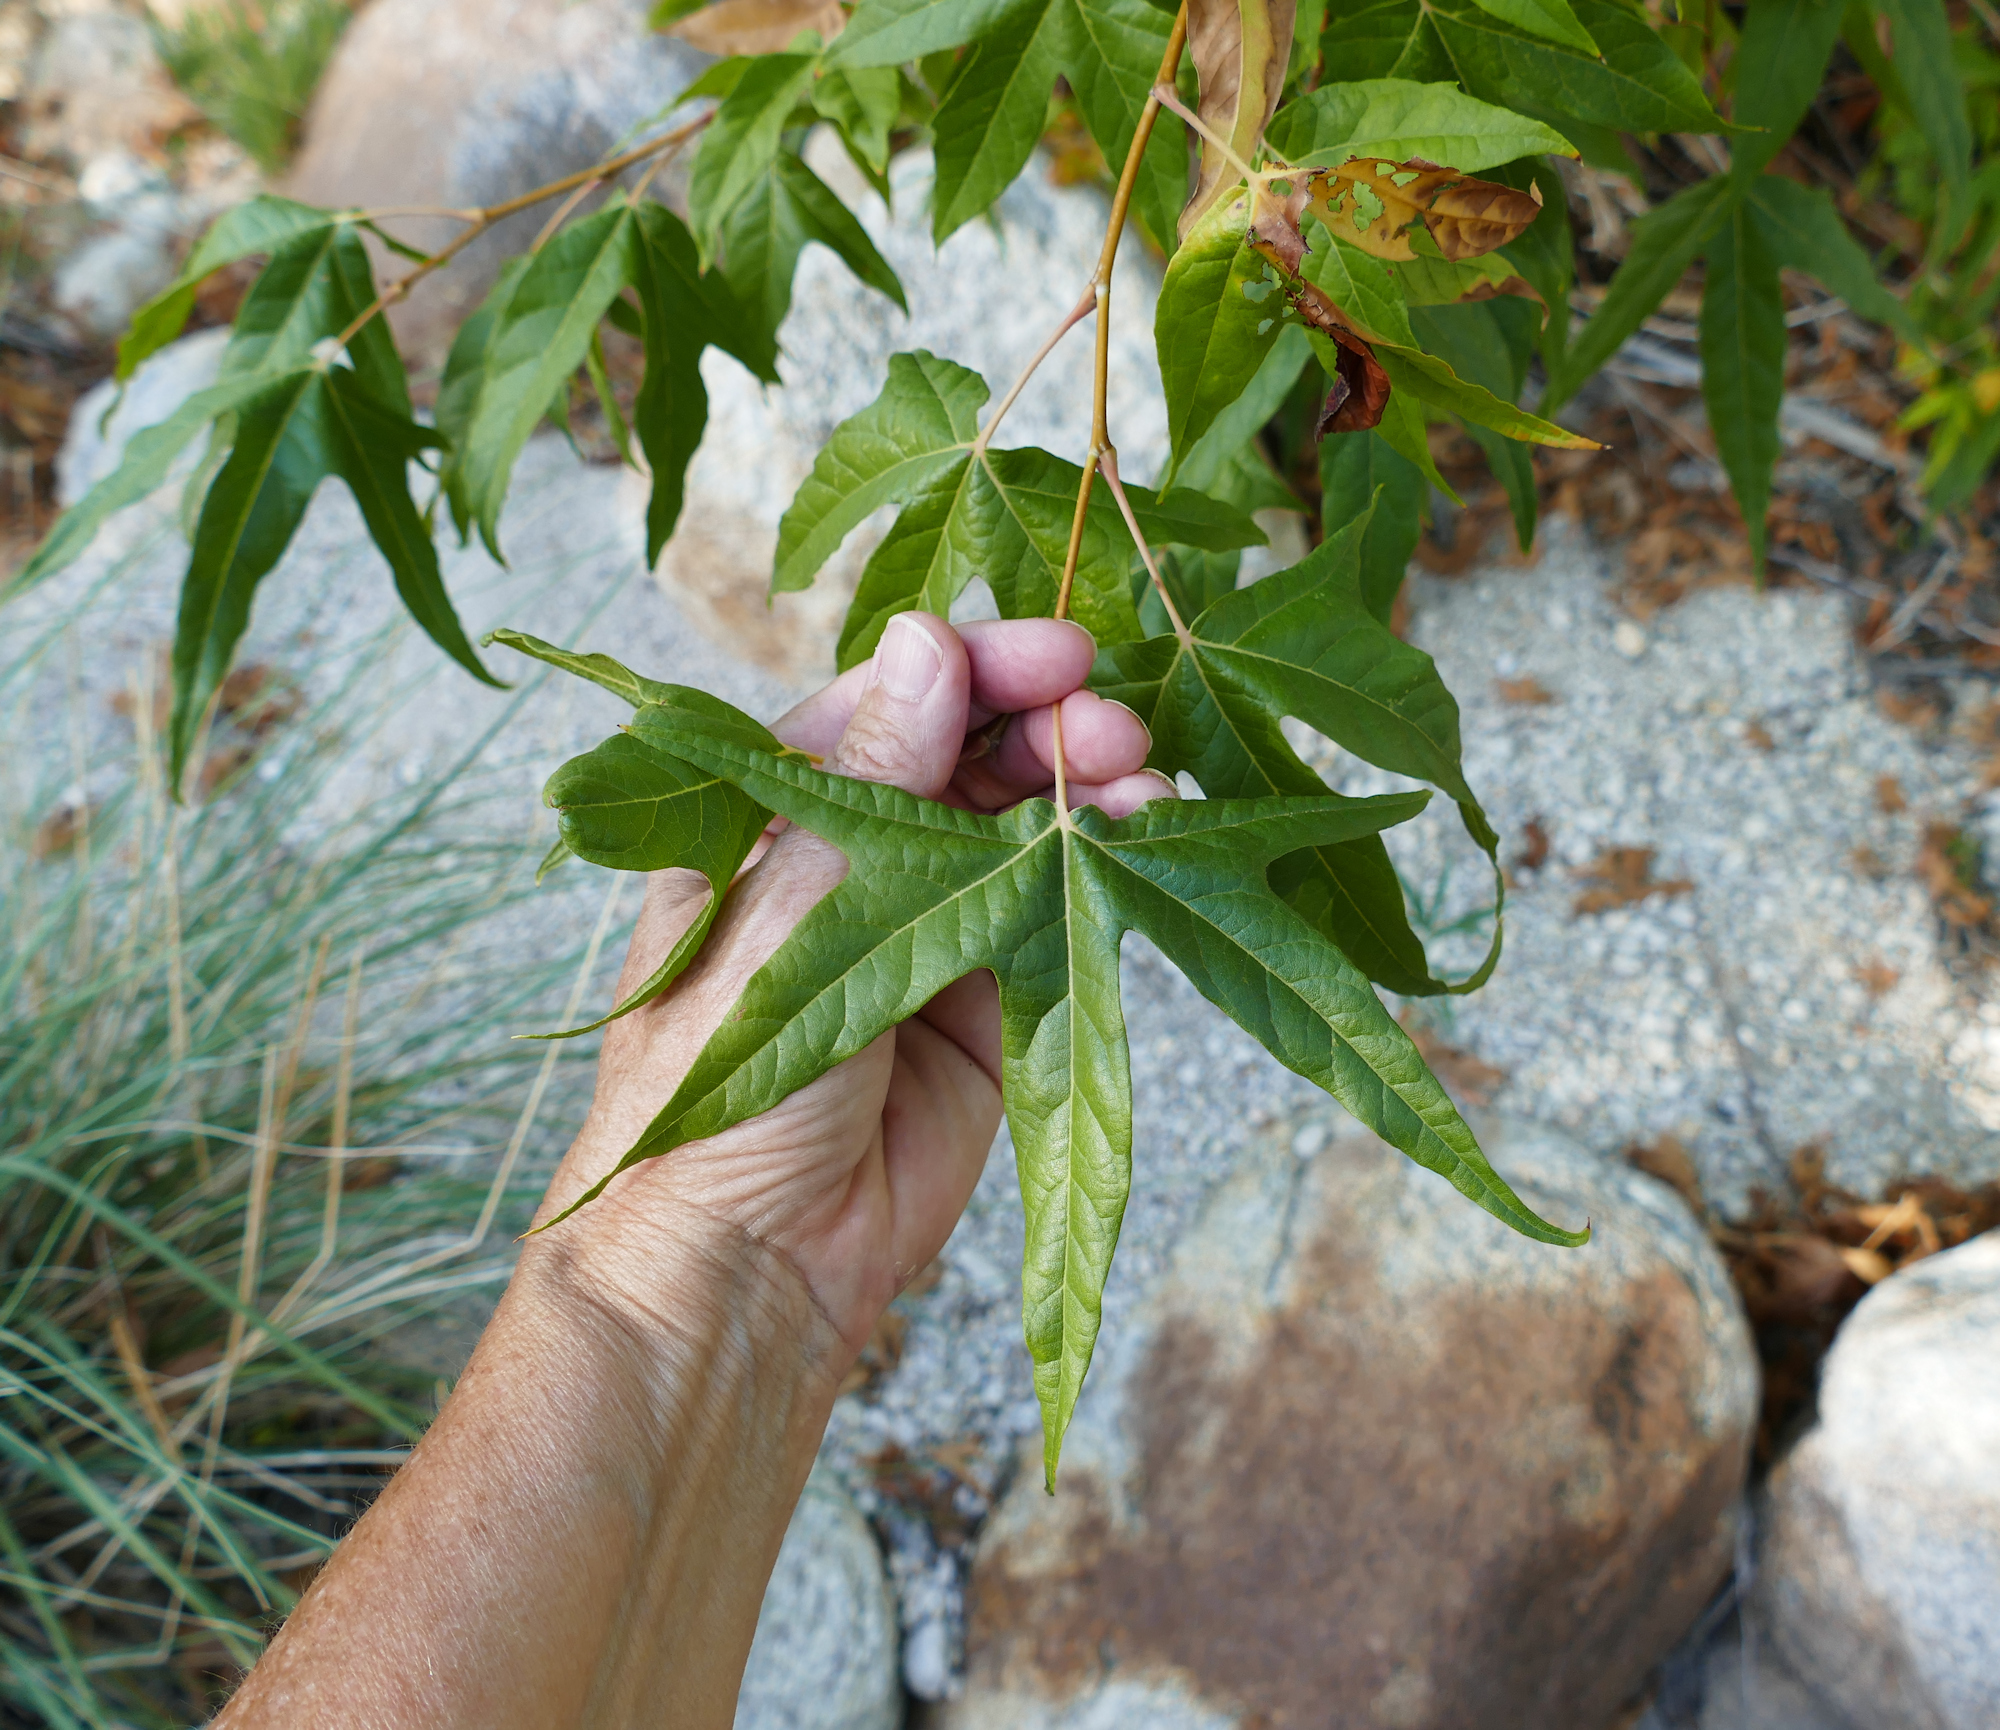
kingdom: Plantae
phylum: Tracheophyta
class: Magnoliopsida
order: Proteales
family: Platanaceae
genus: Platanus
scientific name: Platanus wrightii
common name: Arizona sycamore
